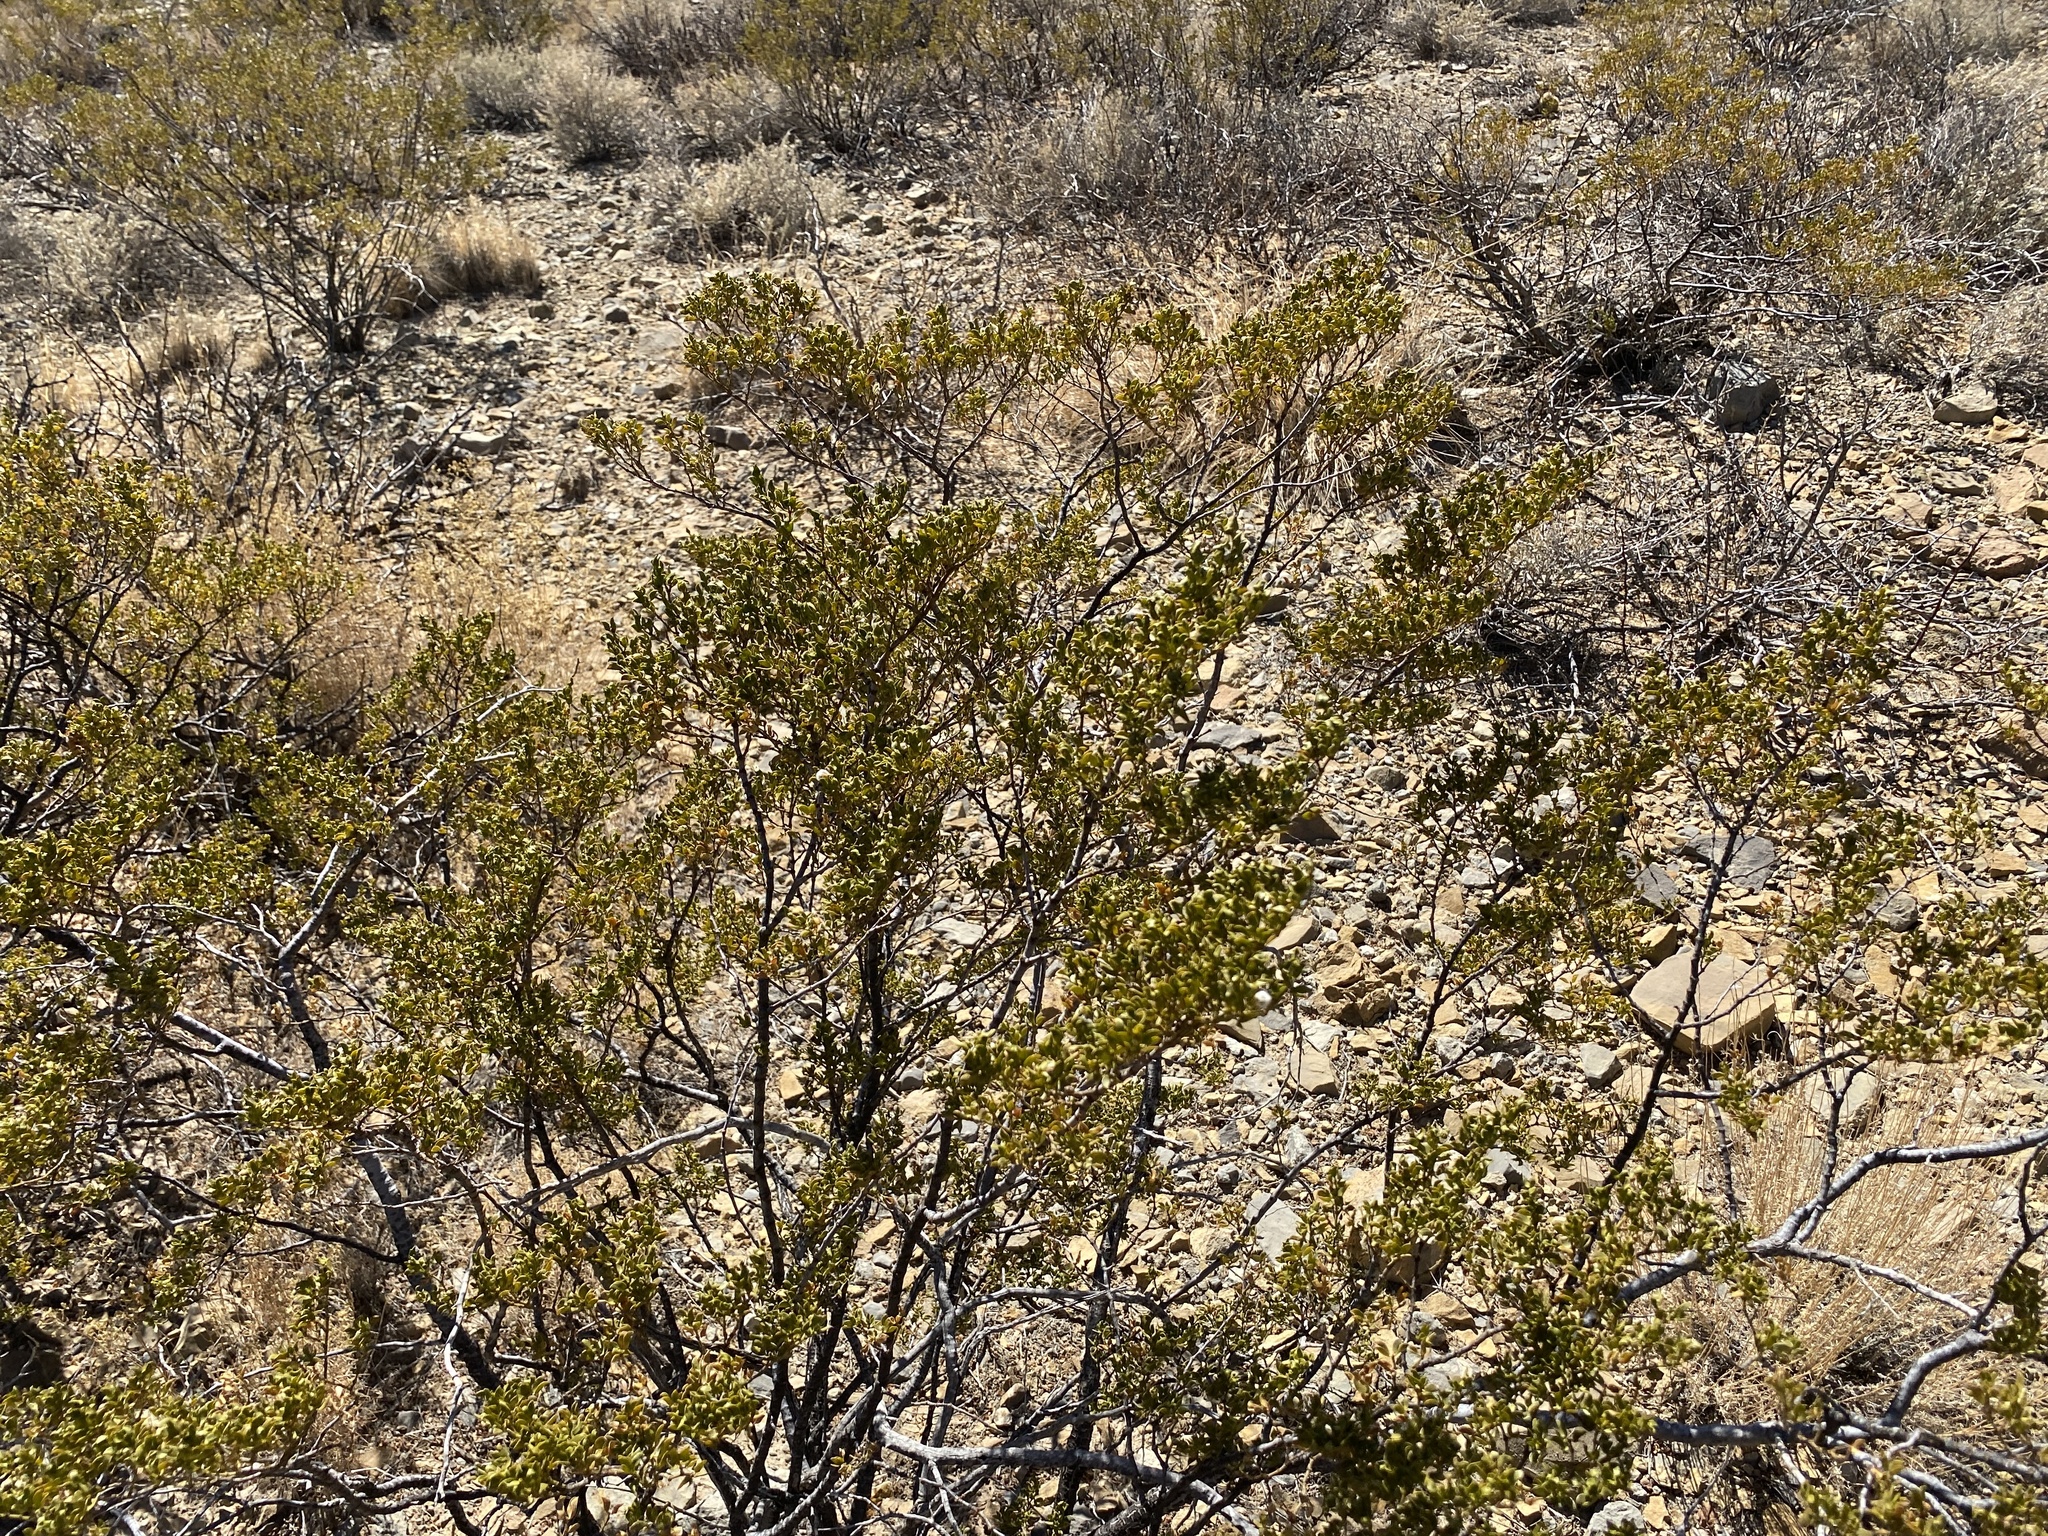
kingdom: Plantae
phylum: Tracheophyta
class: Magnoliopsida
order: Zygophyllales
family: Zygophyllaceae
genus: Larrea
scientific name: Larrea tridentata
